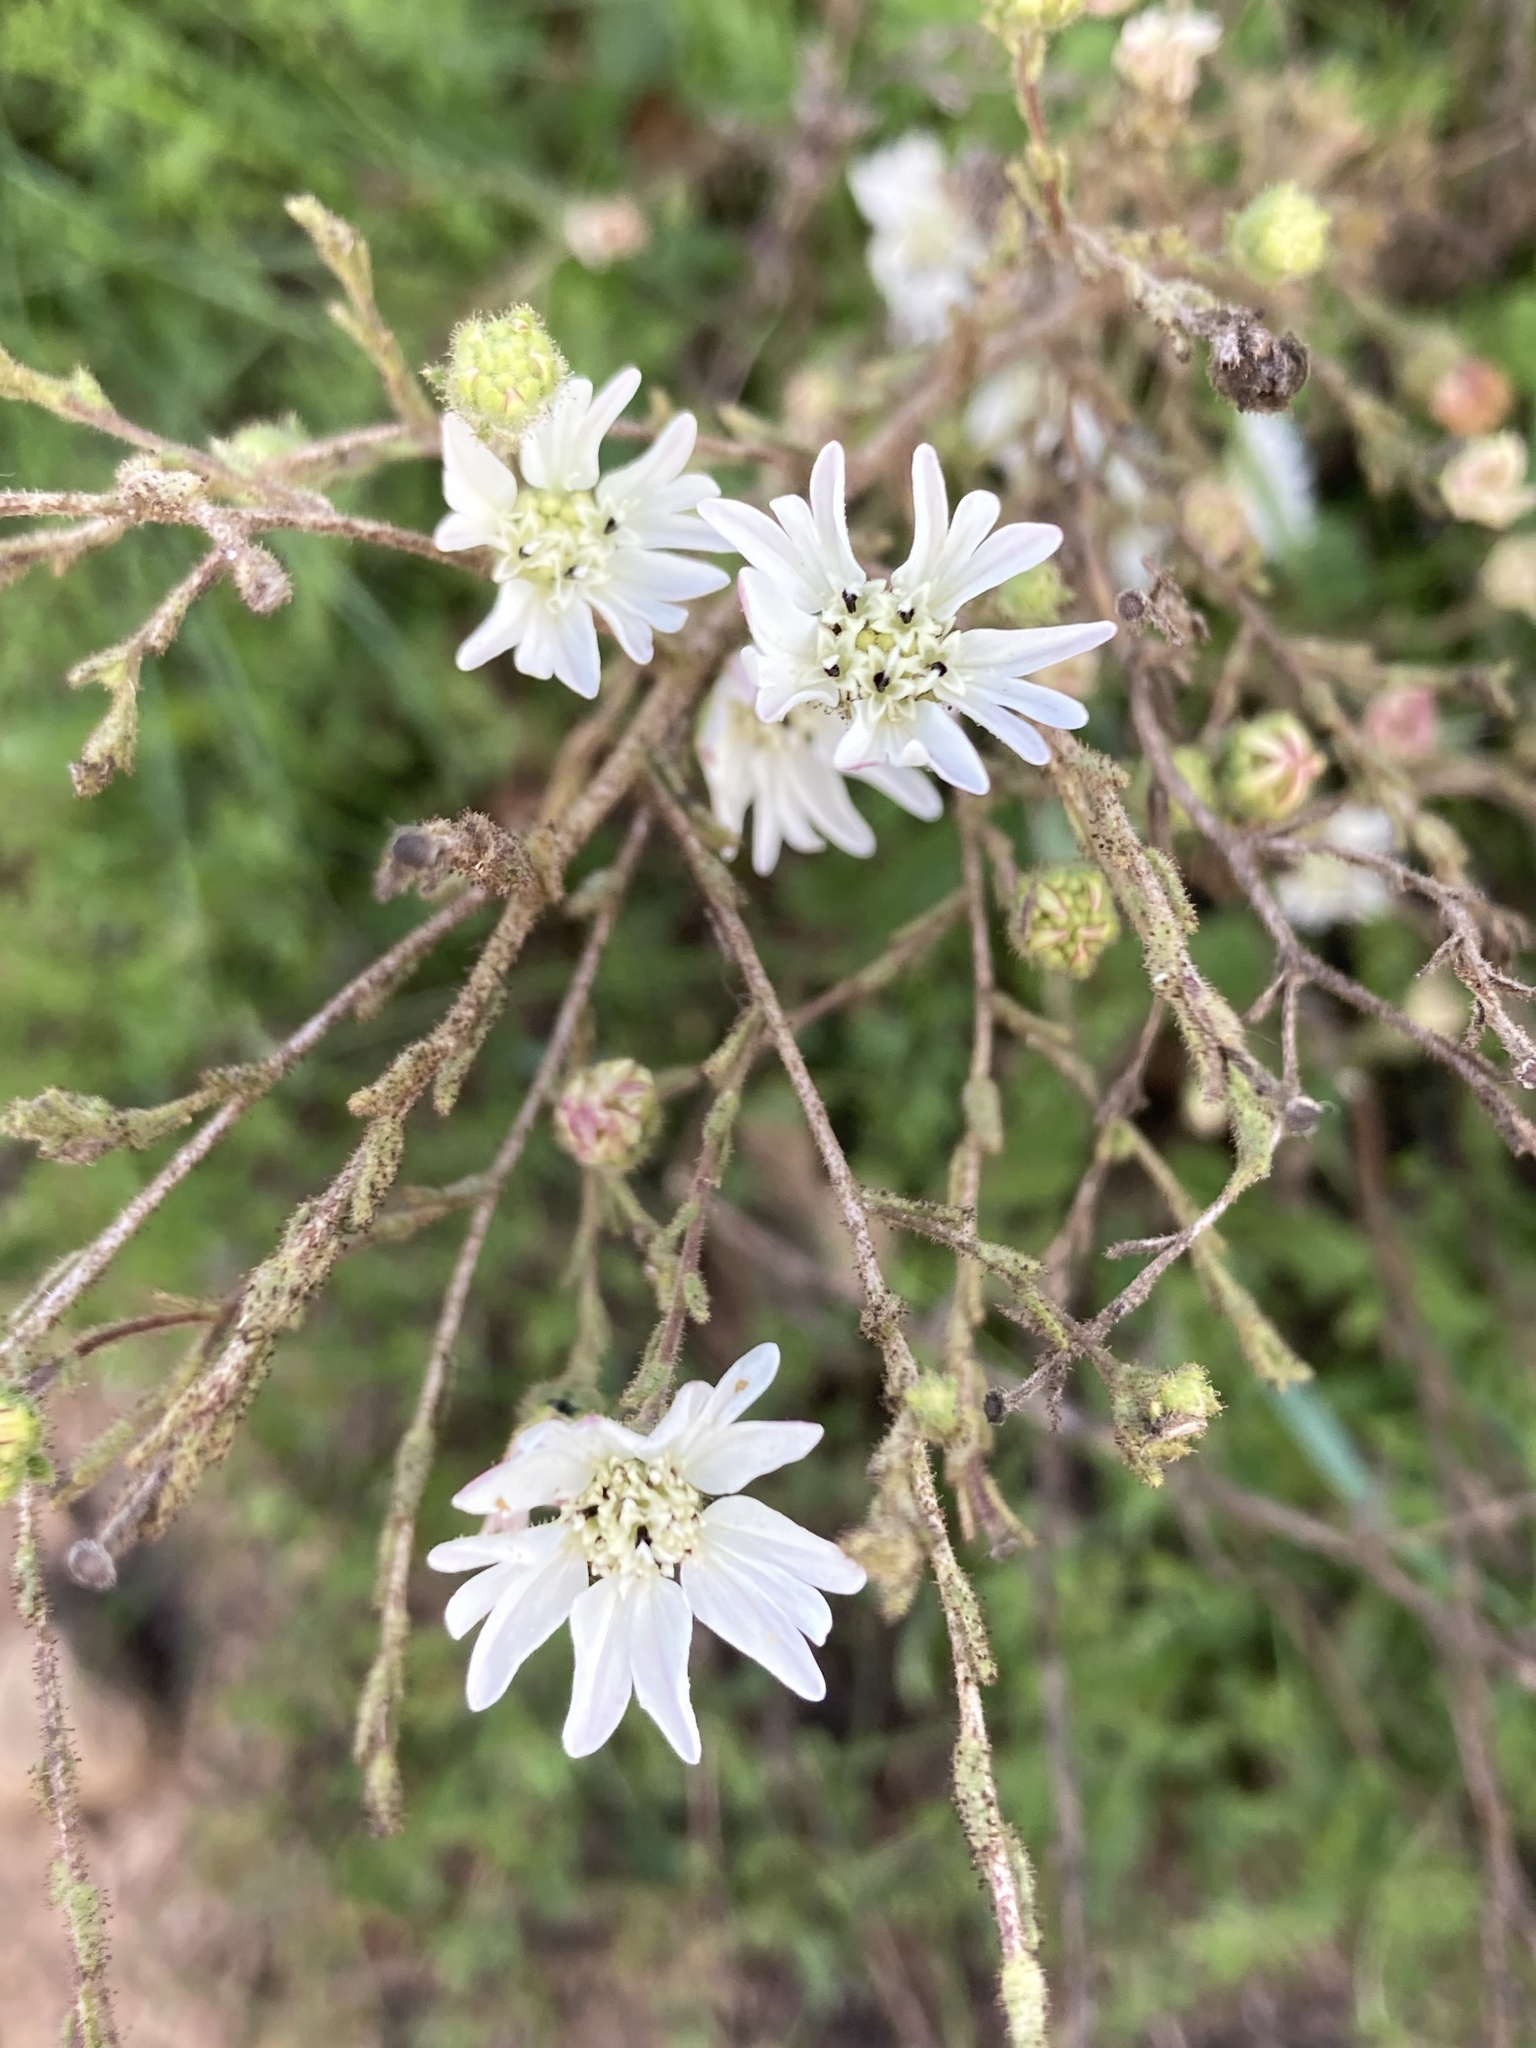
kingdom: Plantae
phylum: Tracheophyta
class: Magnoliopsida
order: Asterales
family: Asteraceae
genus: Hemizonia
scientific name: Hemizonia congesta
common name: Hayfield tarweed
